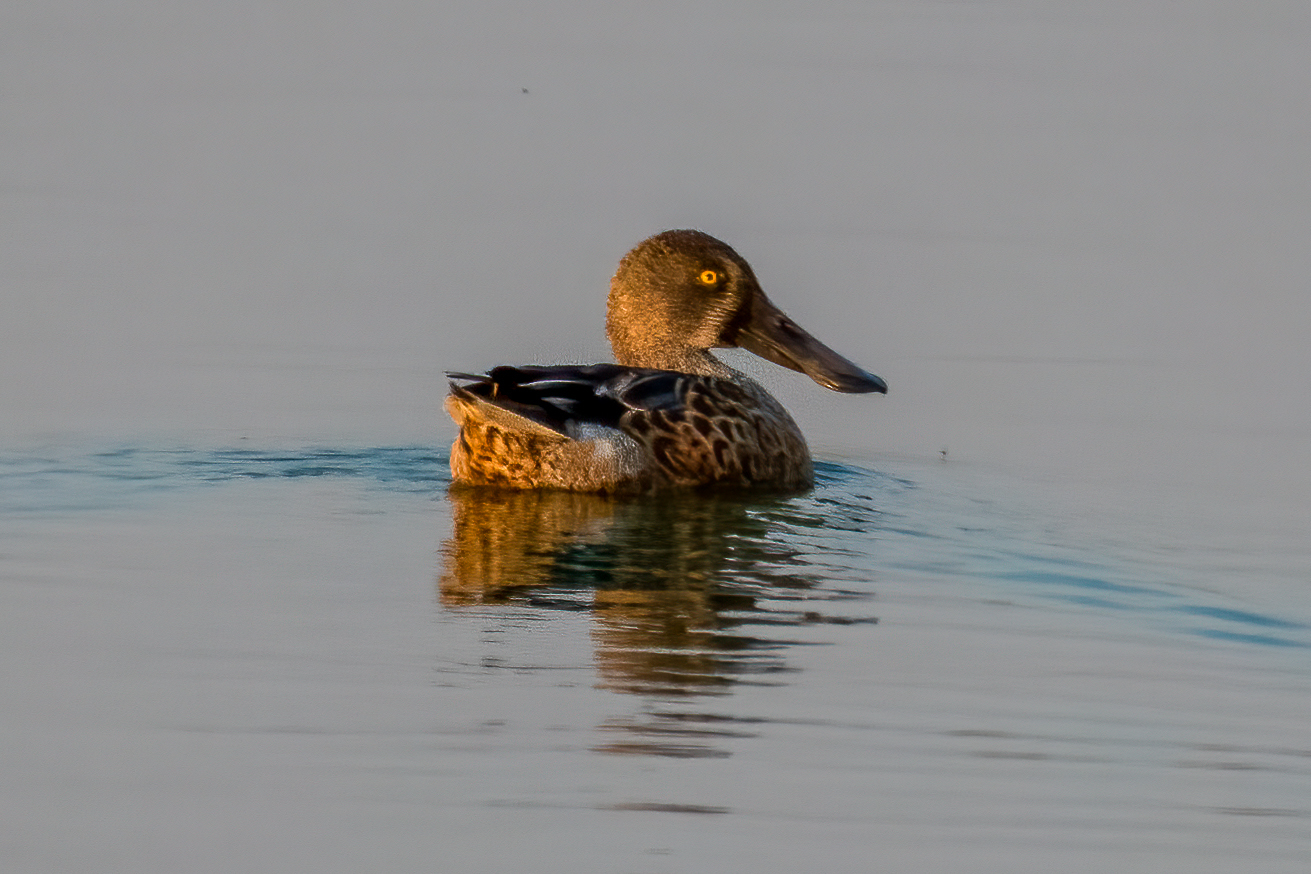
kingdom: Animalia
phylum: Chordata
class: Aves
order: Anseriformes
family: Anatidae
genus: Spatula
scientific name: Spatula clypeata
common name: Northern shoveler
